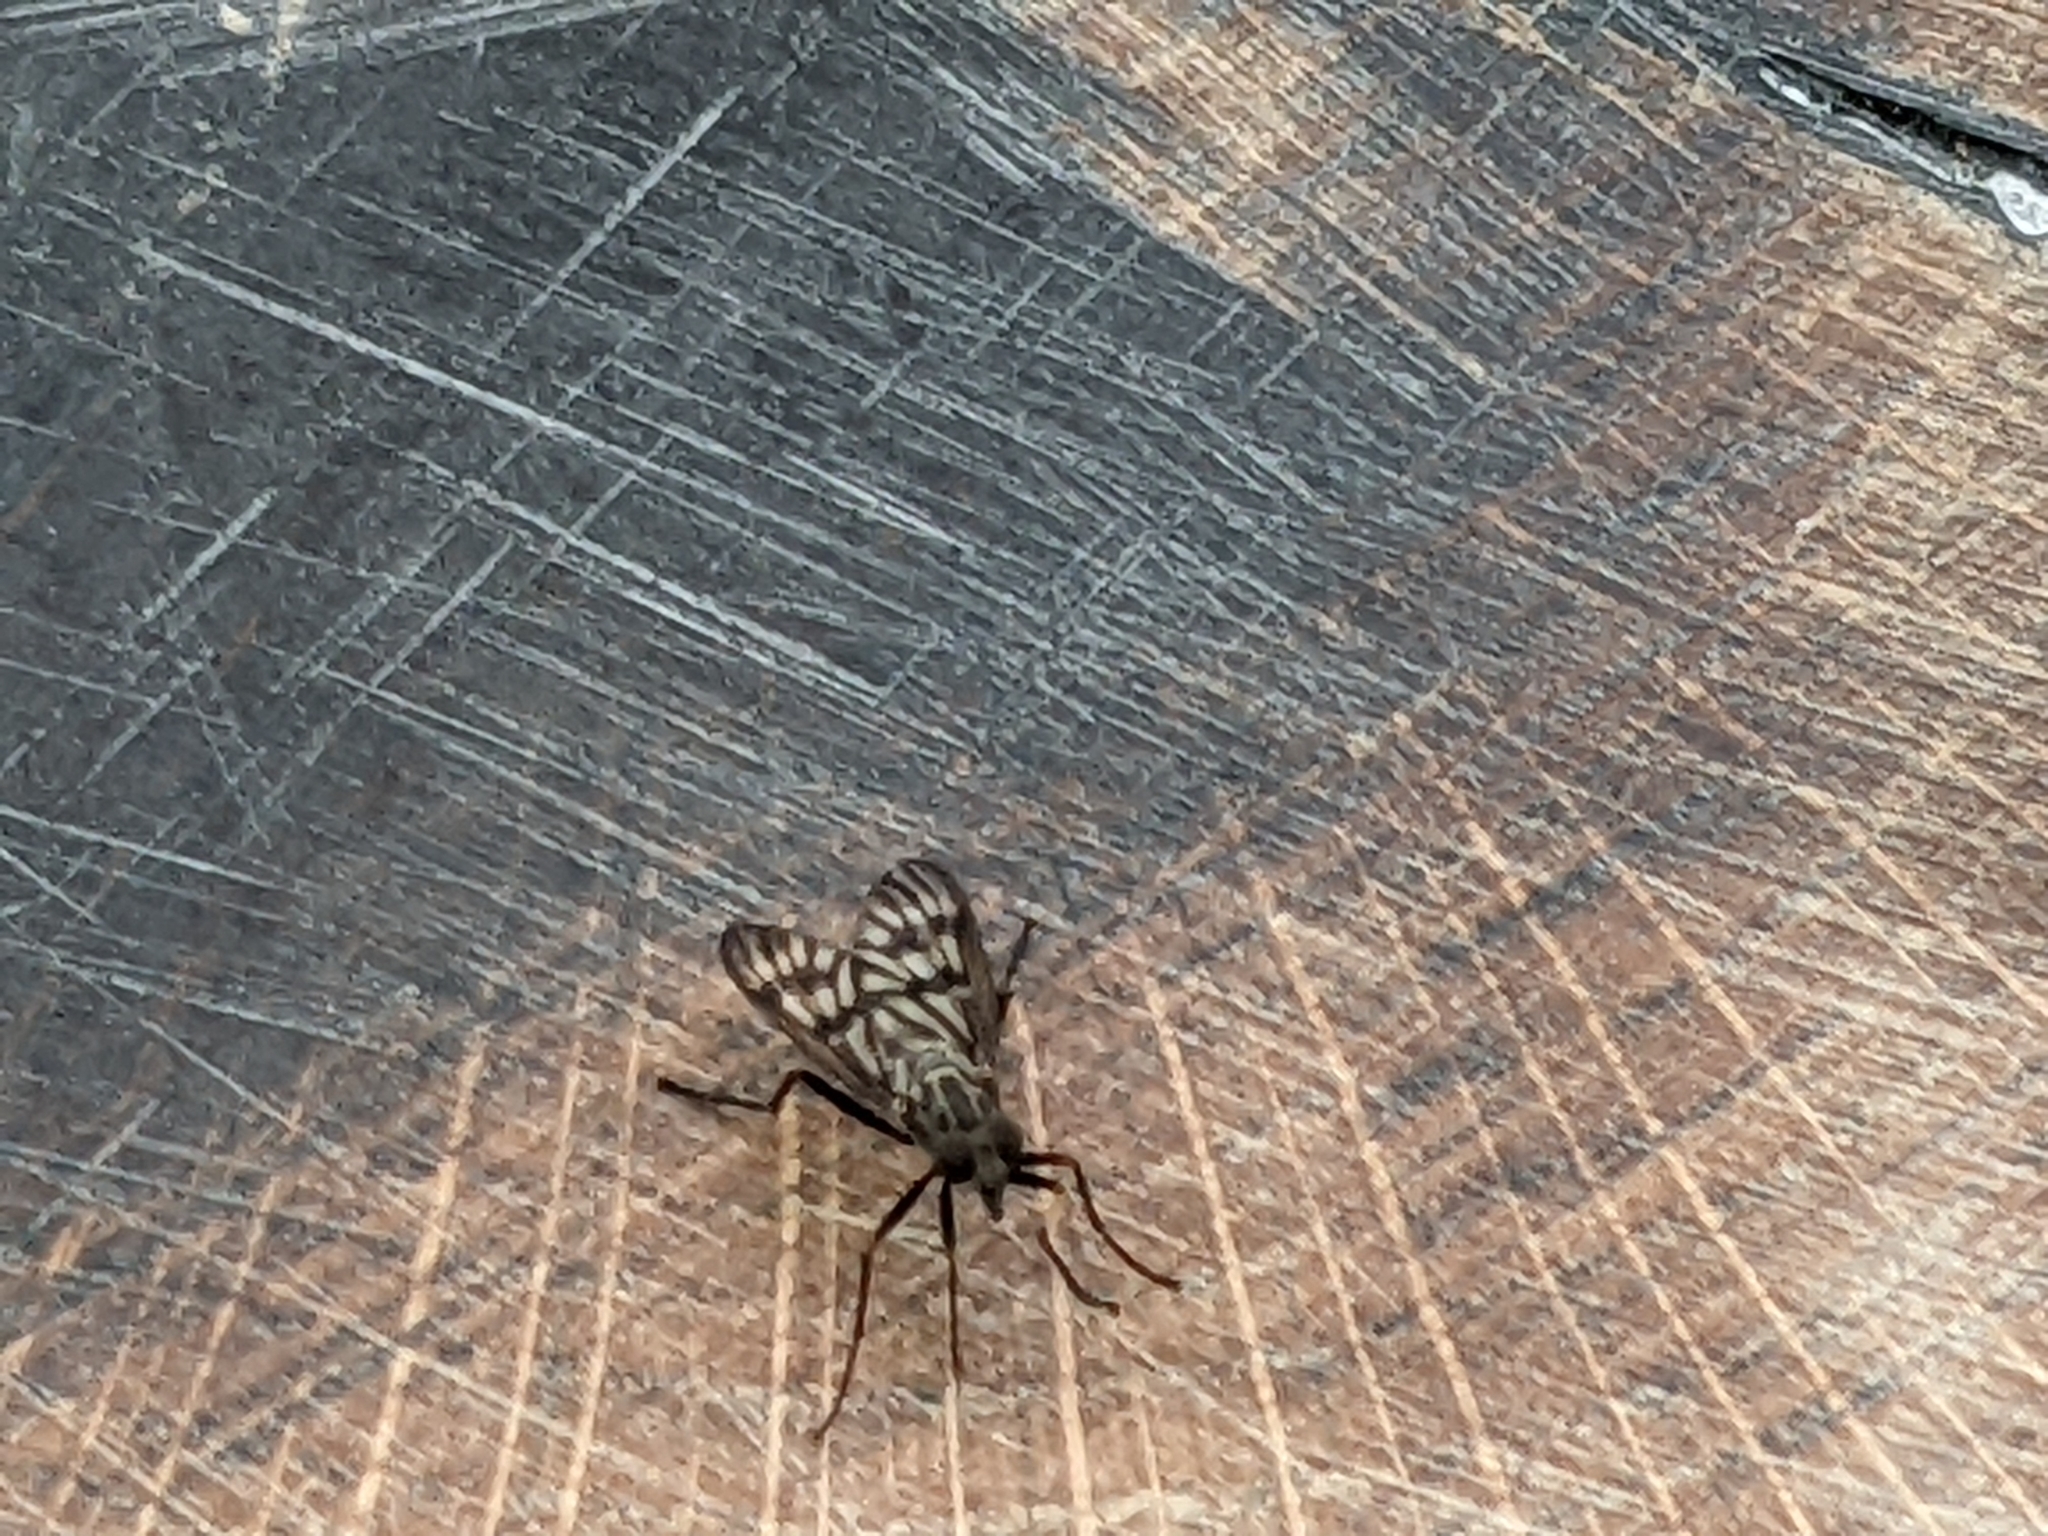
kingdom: Animalia
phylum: Arthropoda
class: Insecta
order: Diptera
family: Rhagionidae
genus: Rhagio
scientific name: Rhagio mystaceus
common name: Common snipe fly
